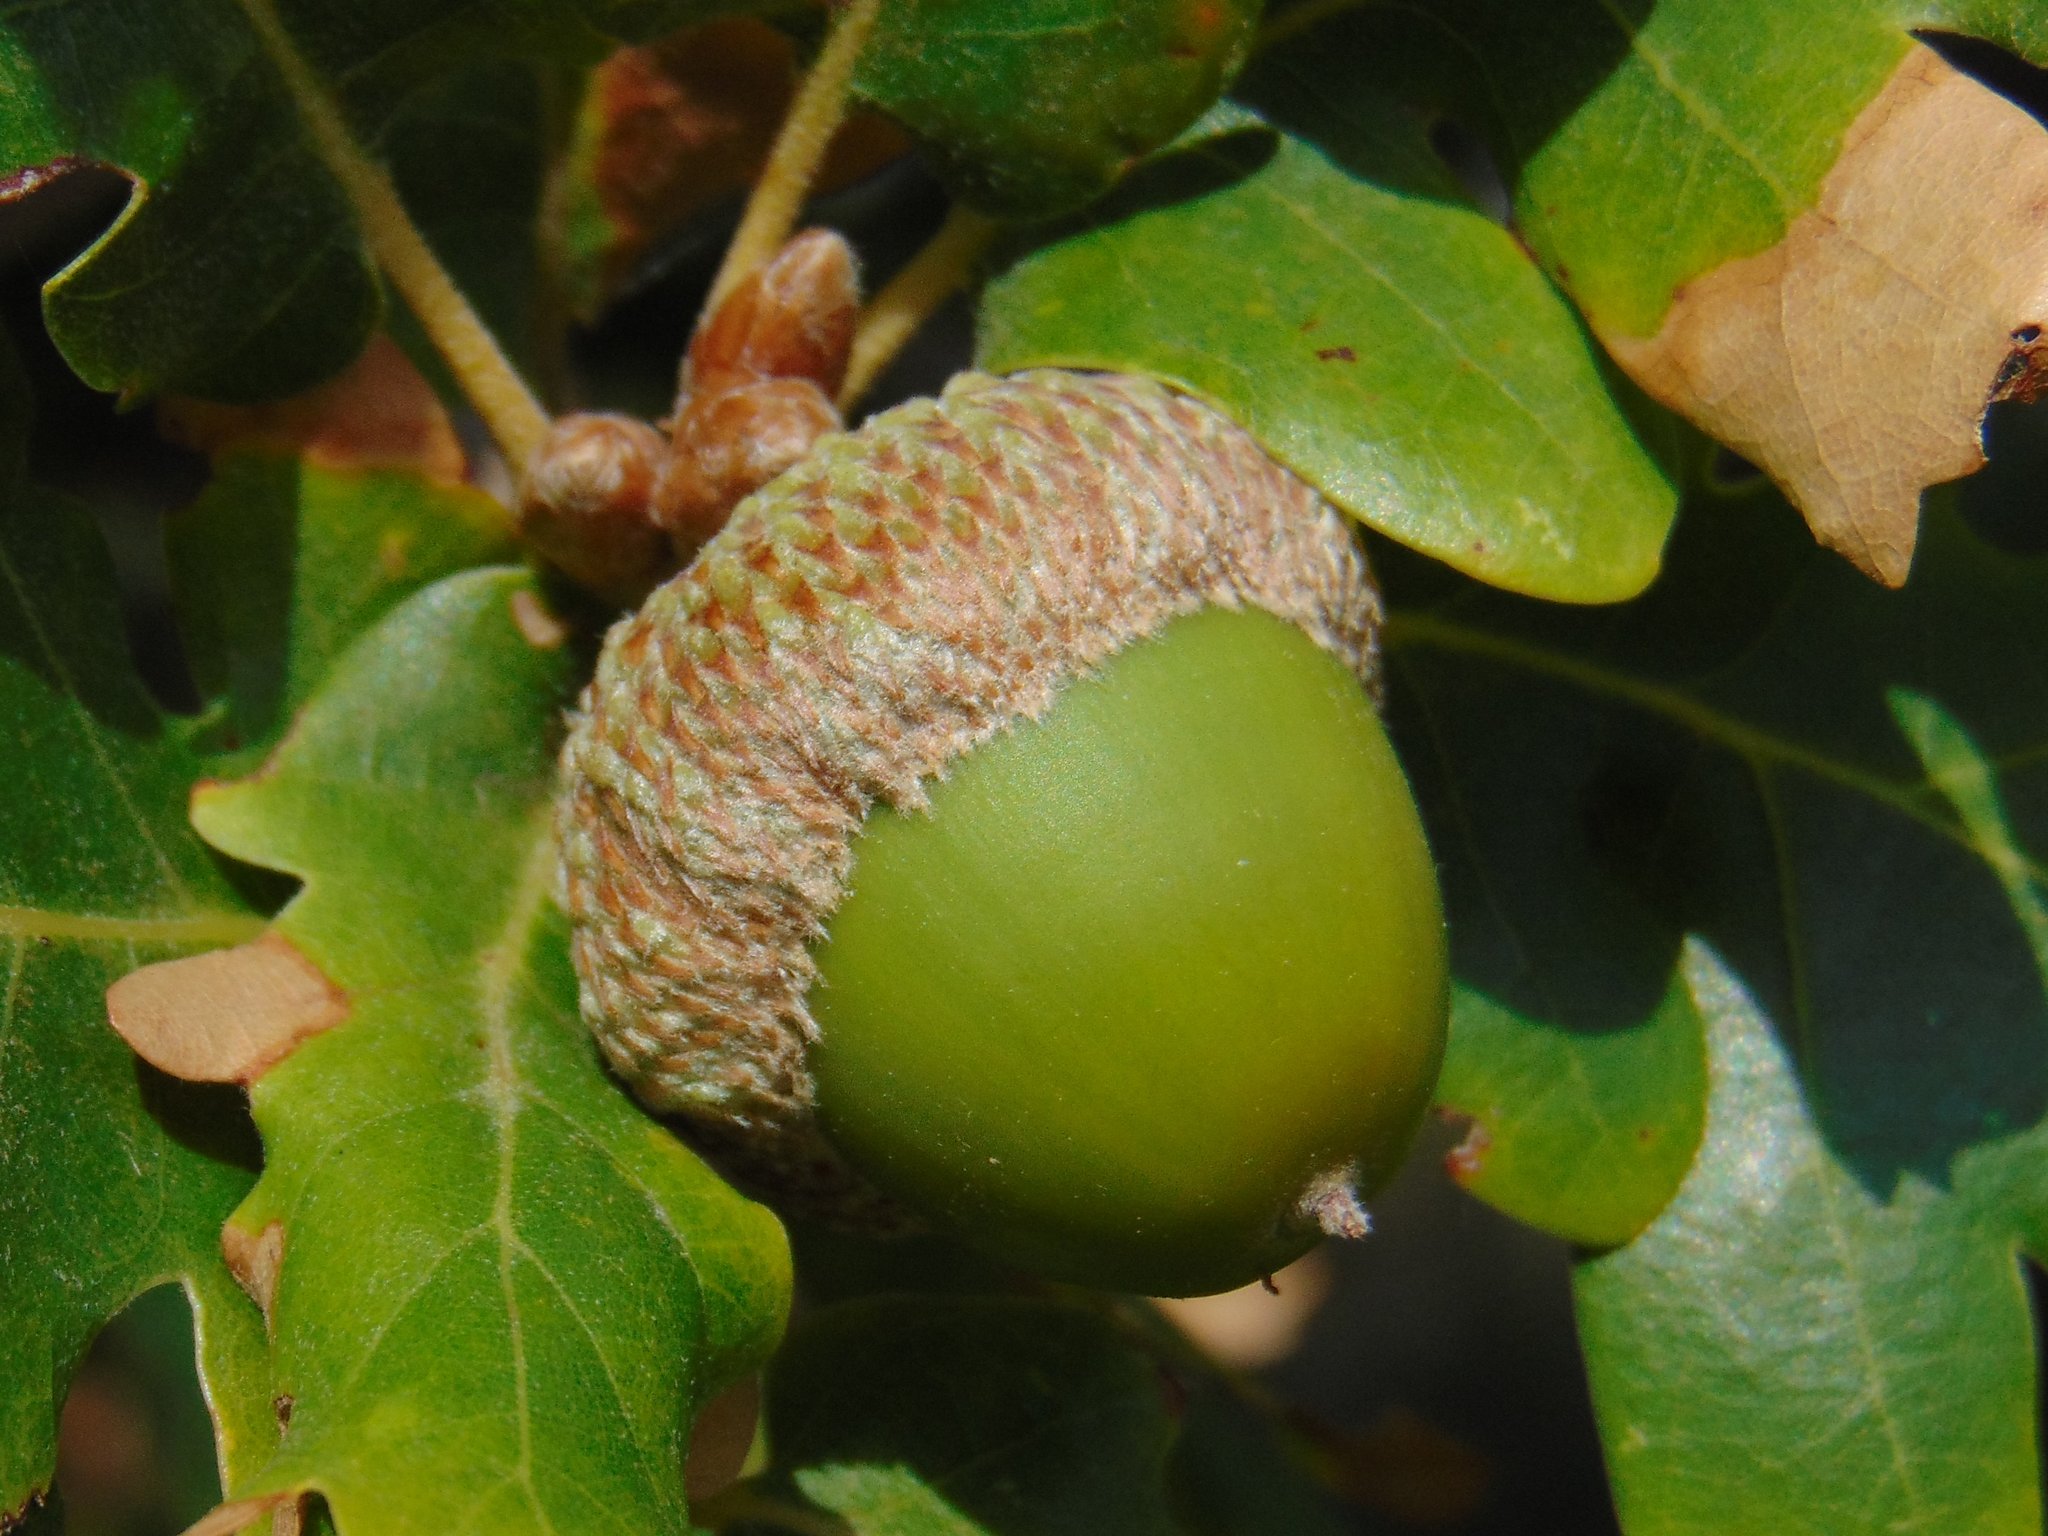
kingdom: Plantae
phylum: Tracheophyta
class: Magnoliopsida
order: Fagales
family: Fagaceae
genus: Quercus
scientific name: Quercus pubescens
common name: Downy oak
